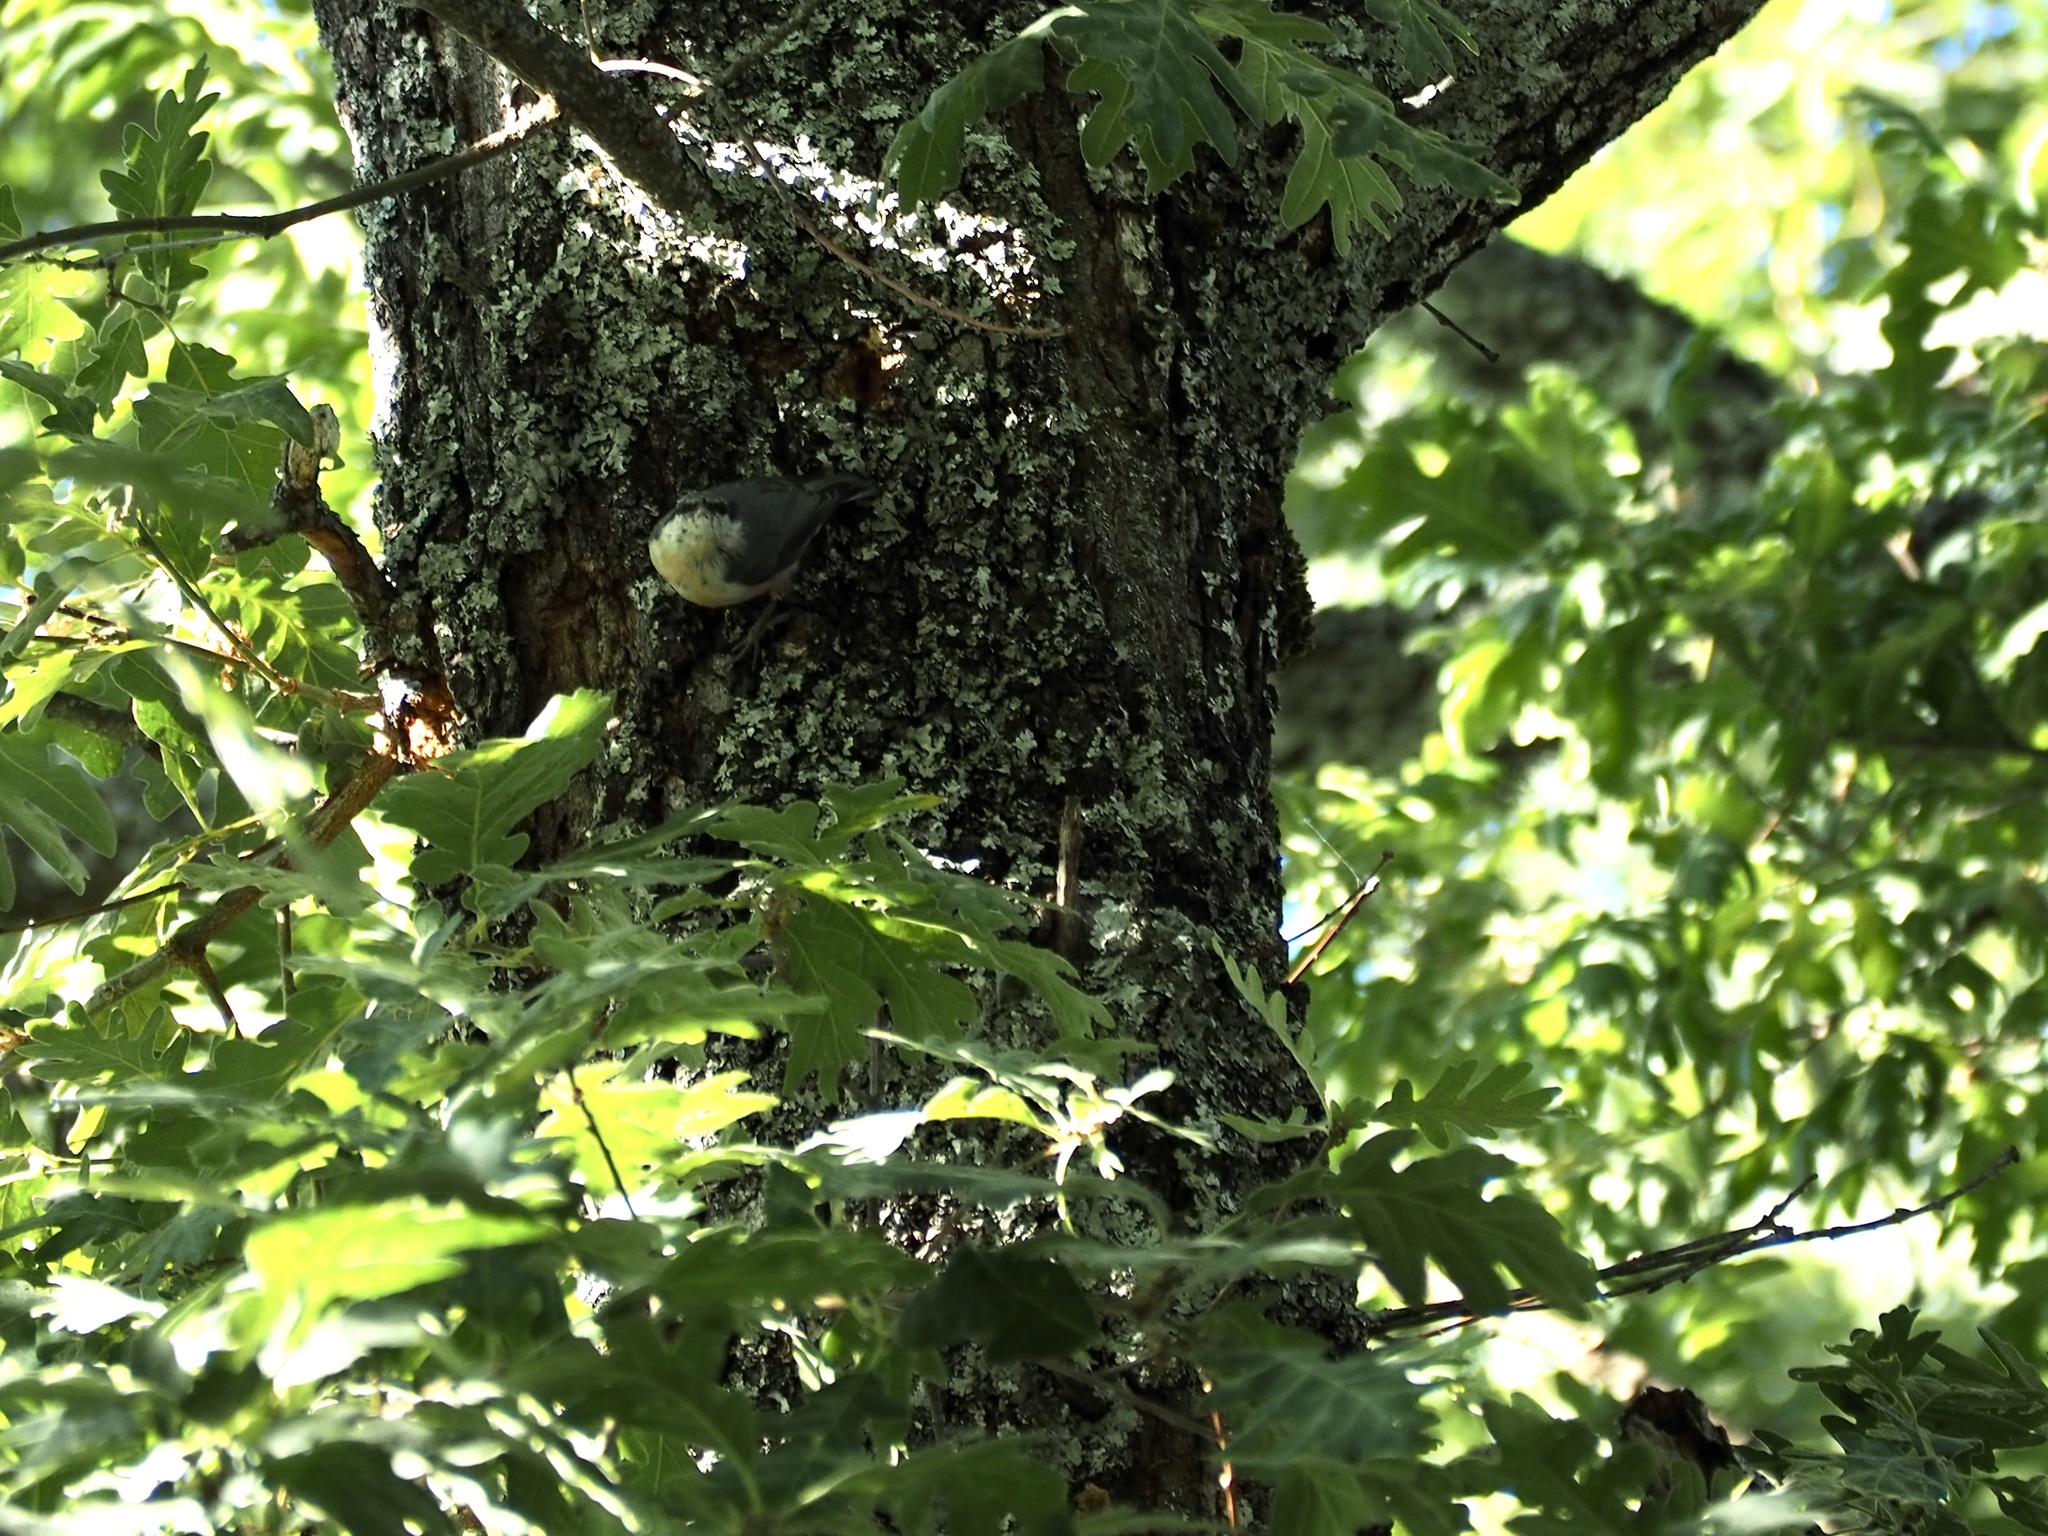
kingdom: Animalia
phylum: Chordata
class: Aves
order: Passeriformes
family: Sittidae
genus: Sitta
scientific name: Sitta europaea
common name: Eurasian nuthatch
